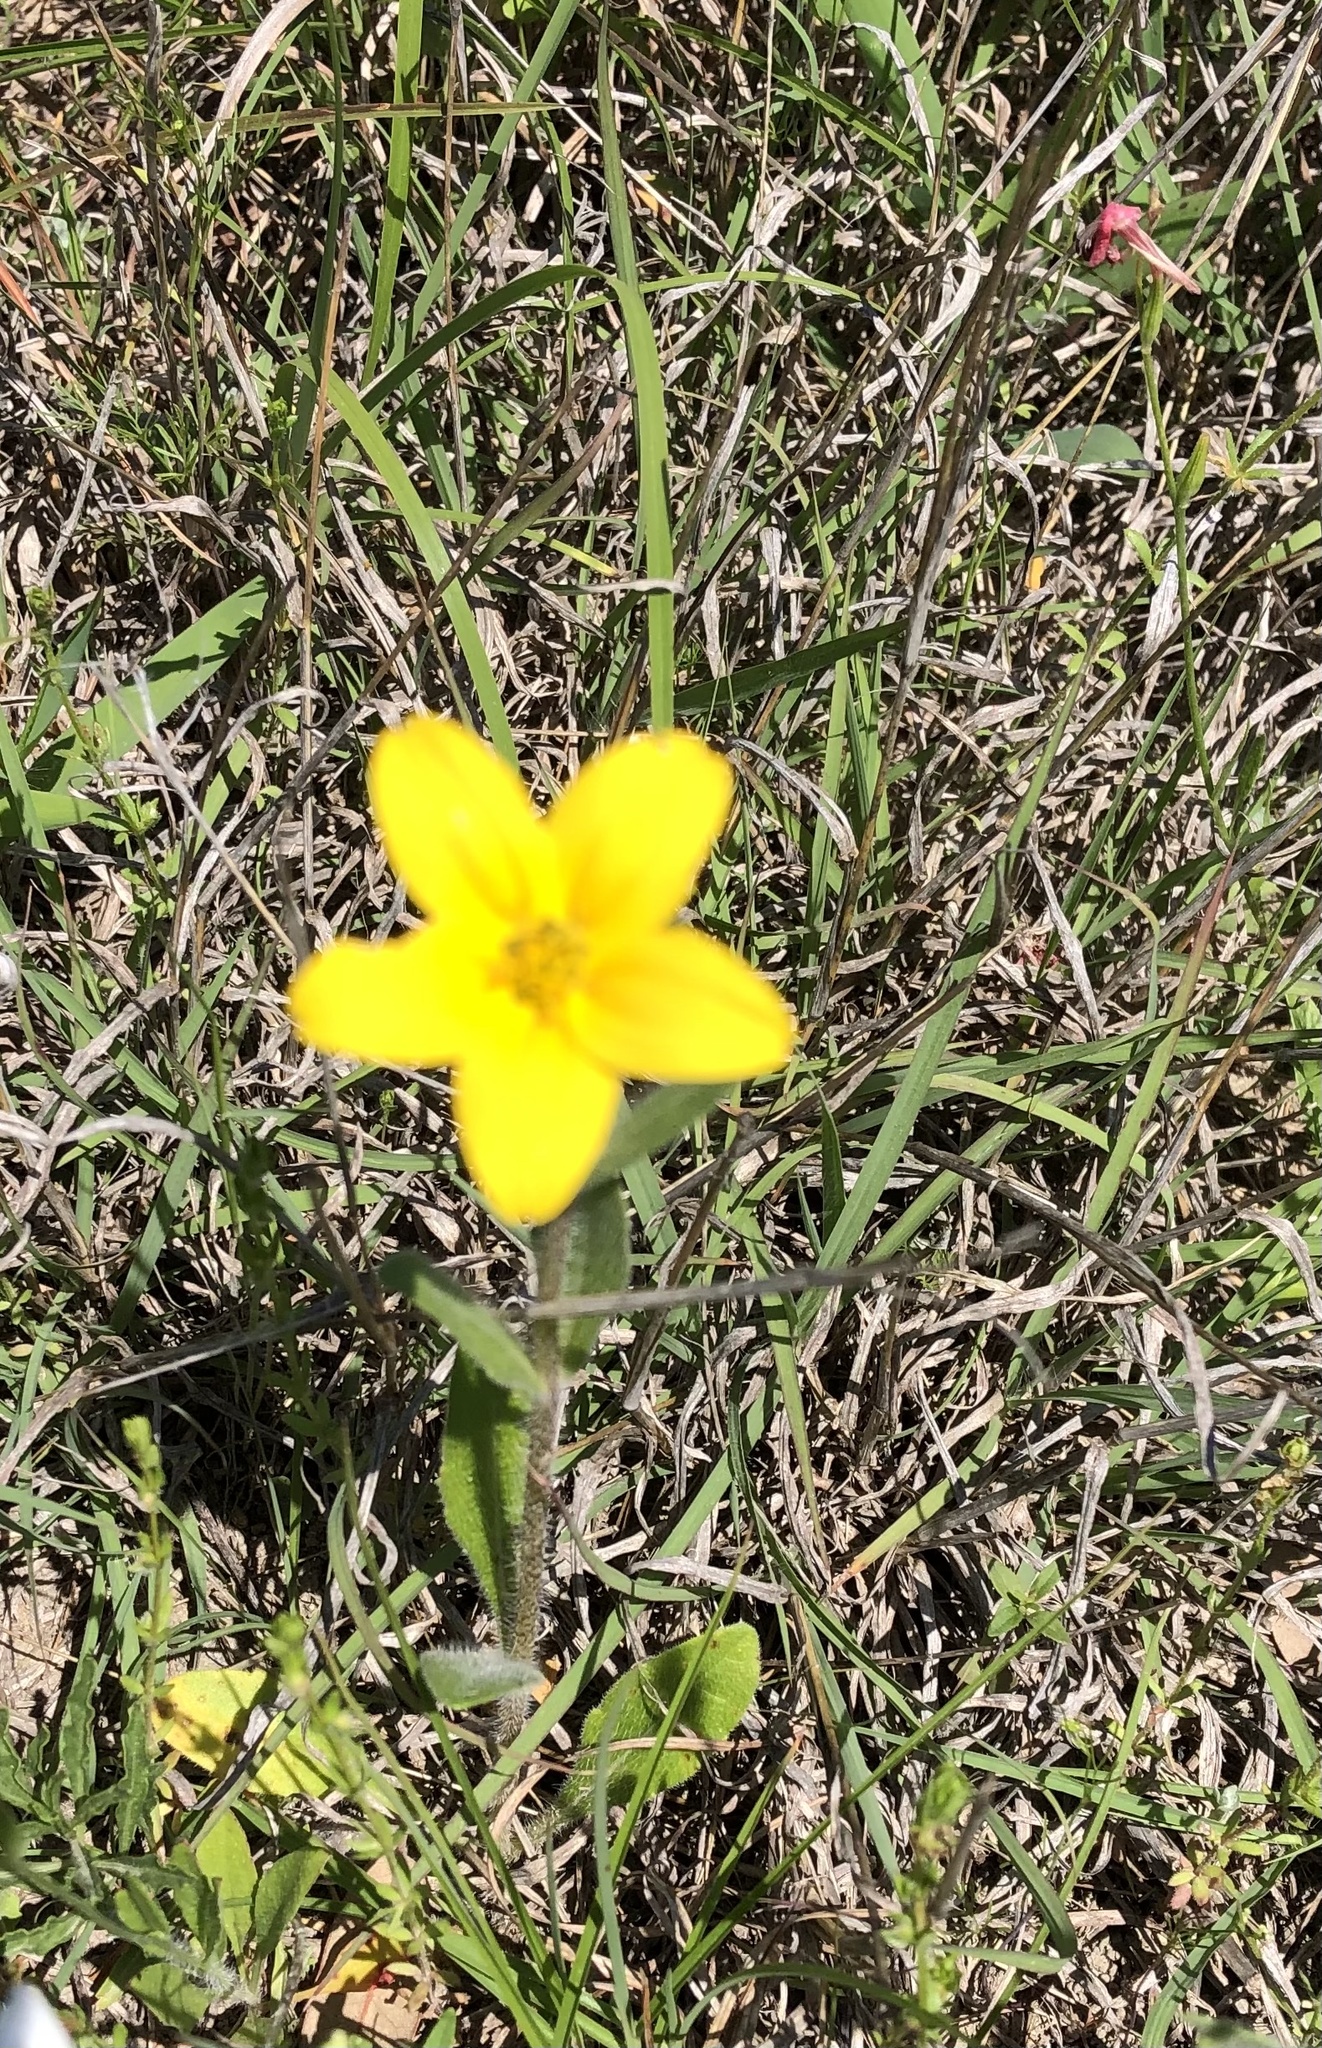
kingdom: Plantae
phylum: Tracheophyta
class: Magnoliopsida
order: Asterales
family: Asteraceae
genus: Lindheimera
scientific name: Lindheimera texana
